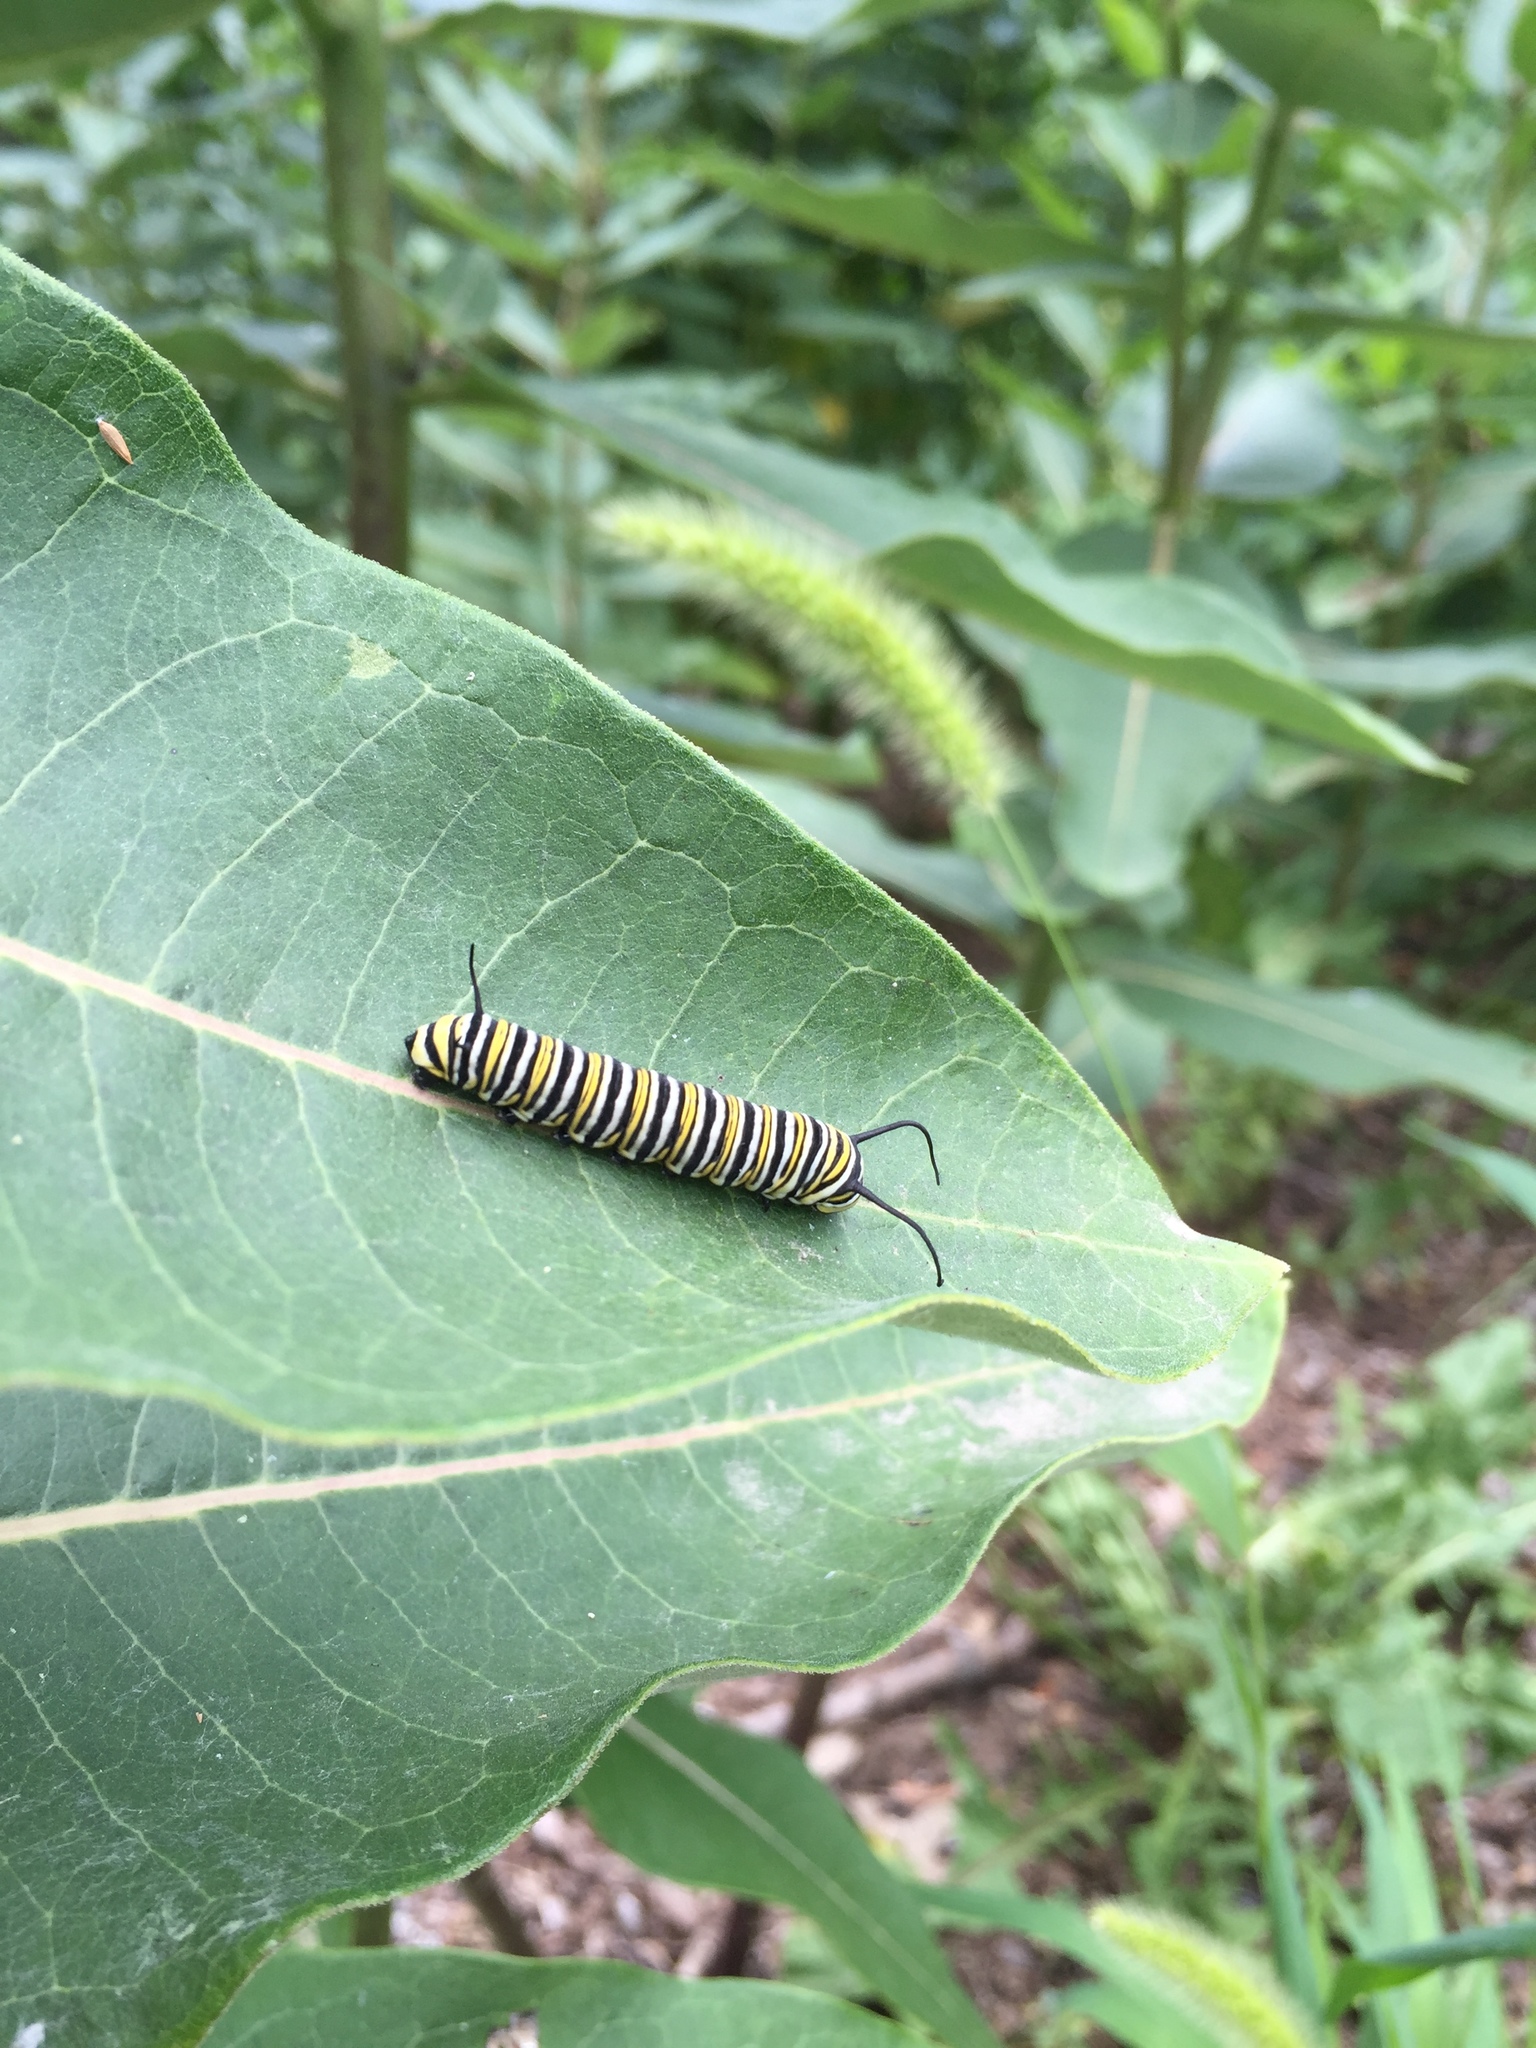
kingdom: Animalia
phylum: Arthropoda
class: Insecta
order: Lepidoptera
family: Nymphalidae
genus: Danaus
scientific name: Danaus plexippus
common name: Monarch
